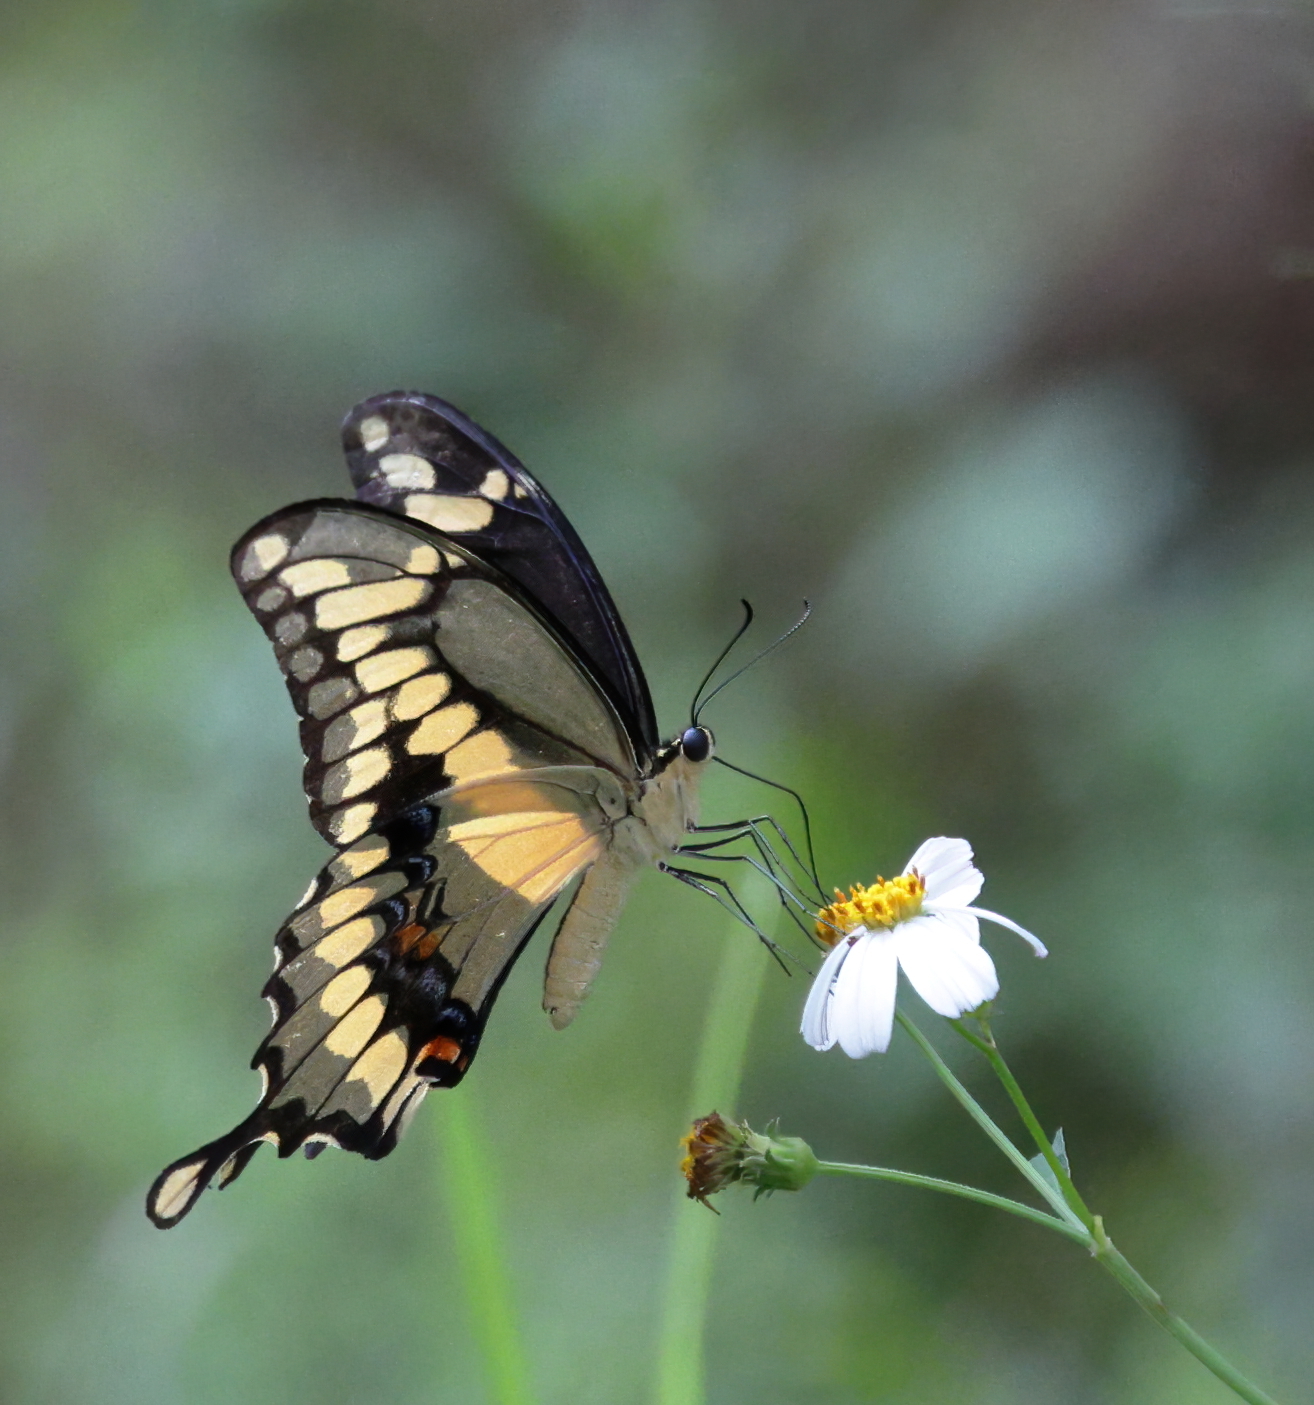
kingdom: Animalia
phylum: Arthropoda
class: Insecta
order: Lepidoptera
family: Papilionidae
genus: Papilio
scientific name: Papilio cresphontes
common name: Giant swallowtail
